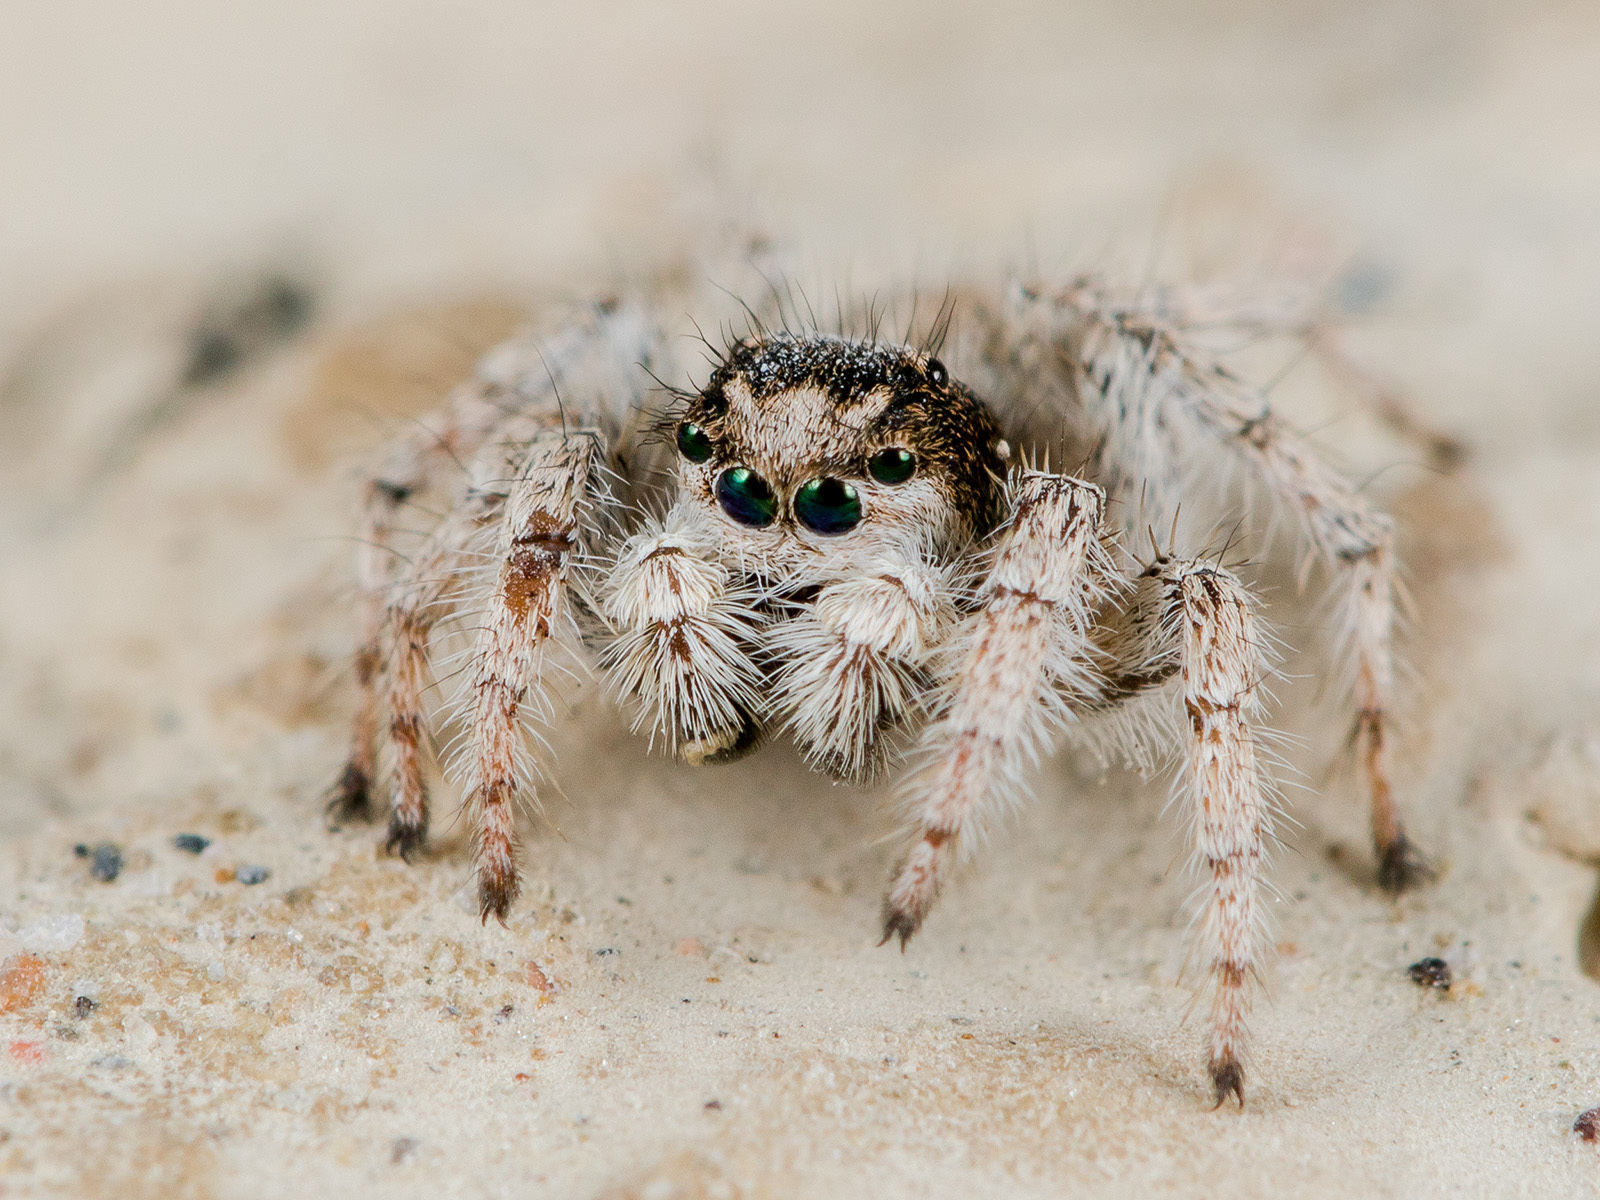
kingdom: Animalia
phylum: Arthropoda
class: Arachnida
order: Araneae
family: Salticidae
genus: Aelurillus
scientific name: Aelurillus concolor
